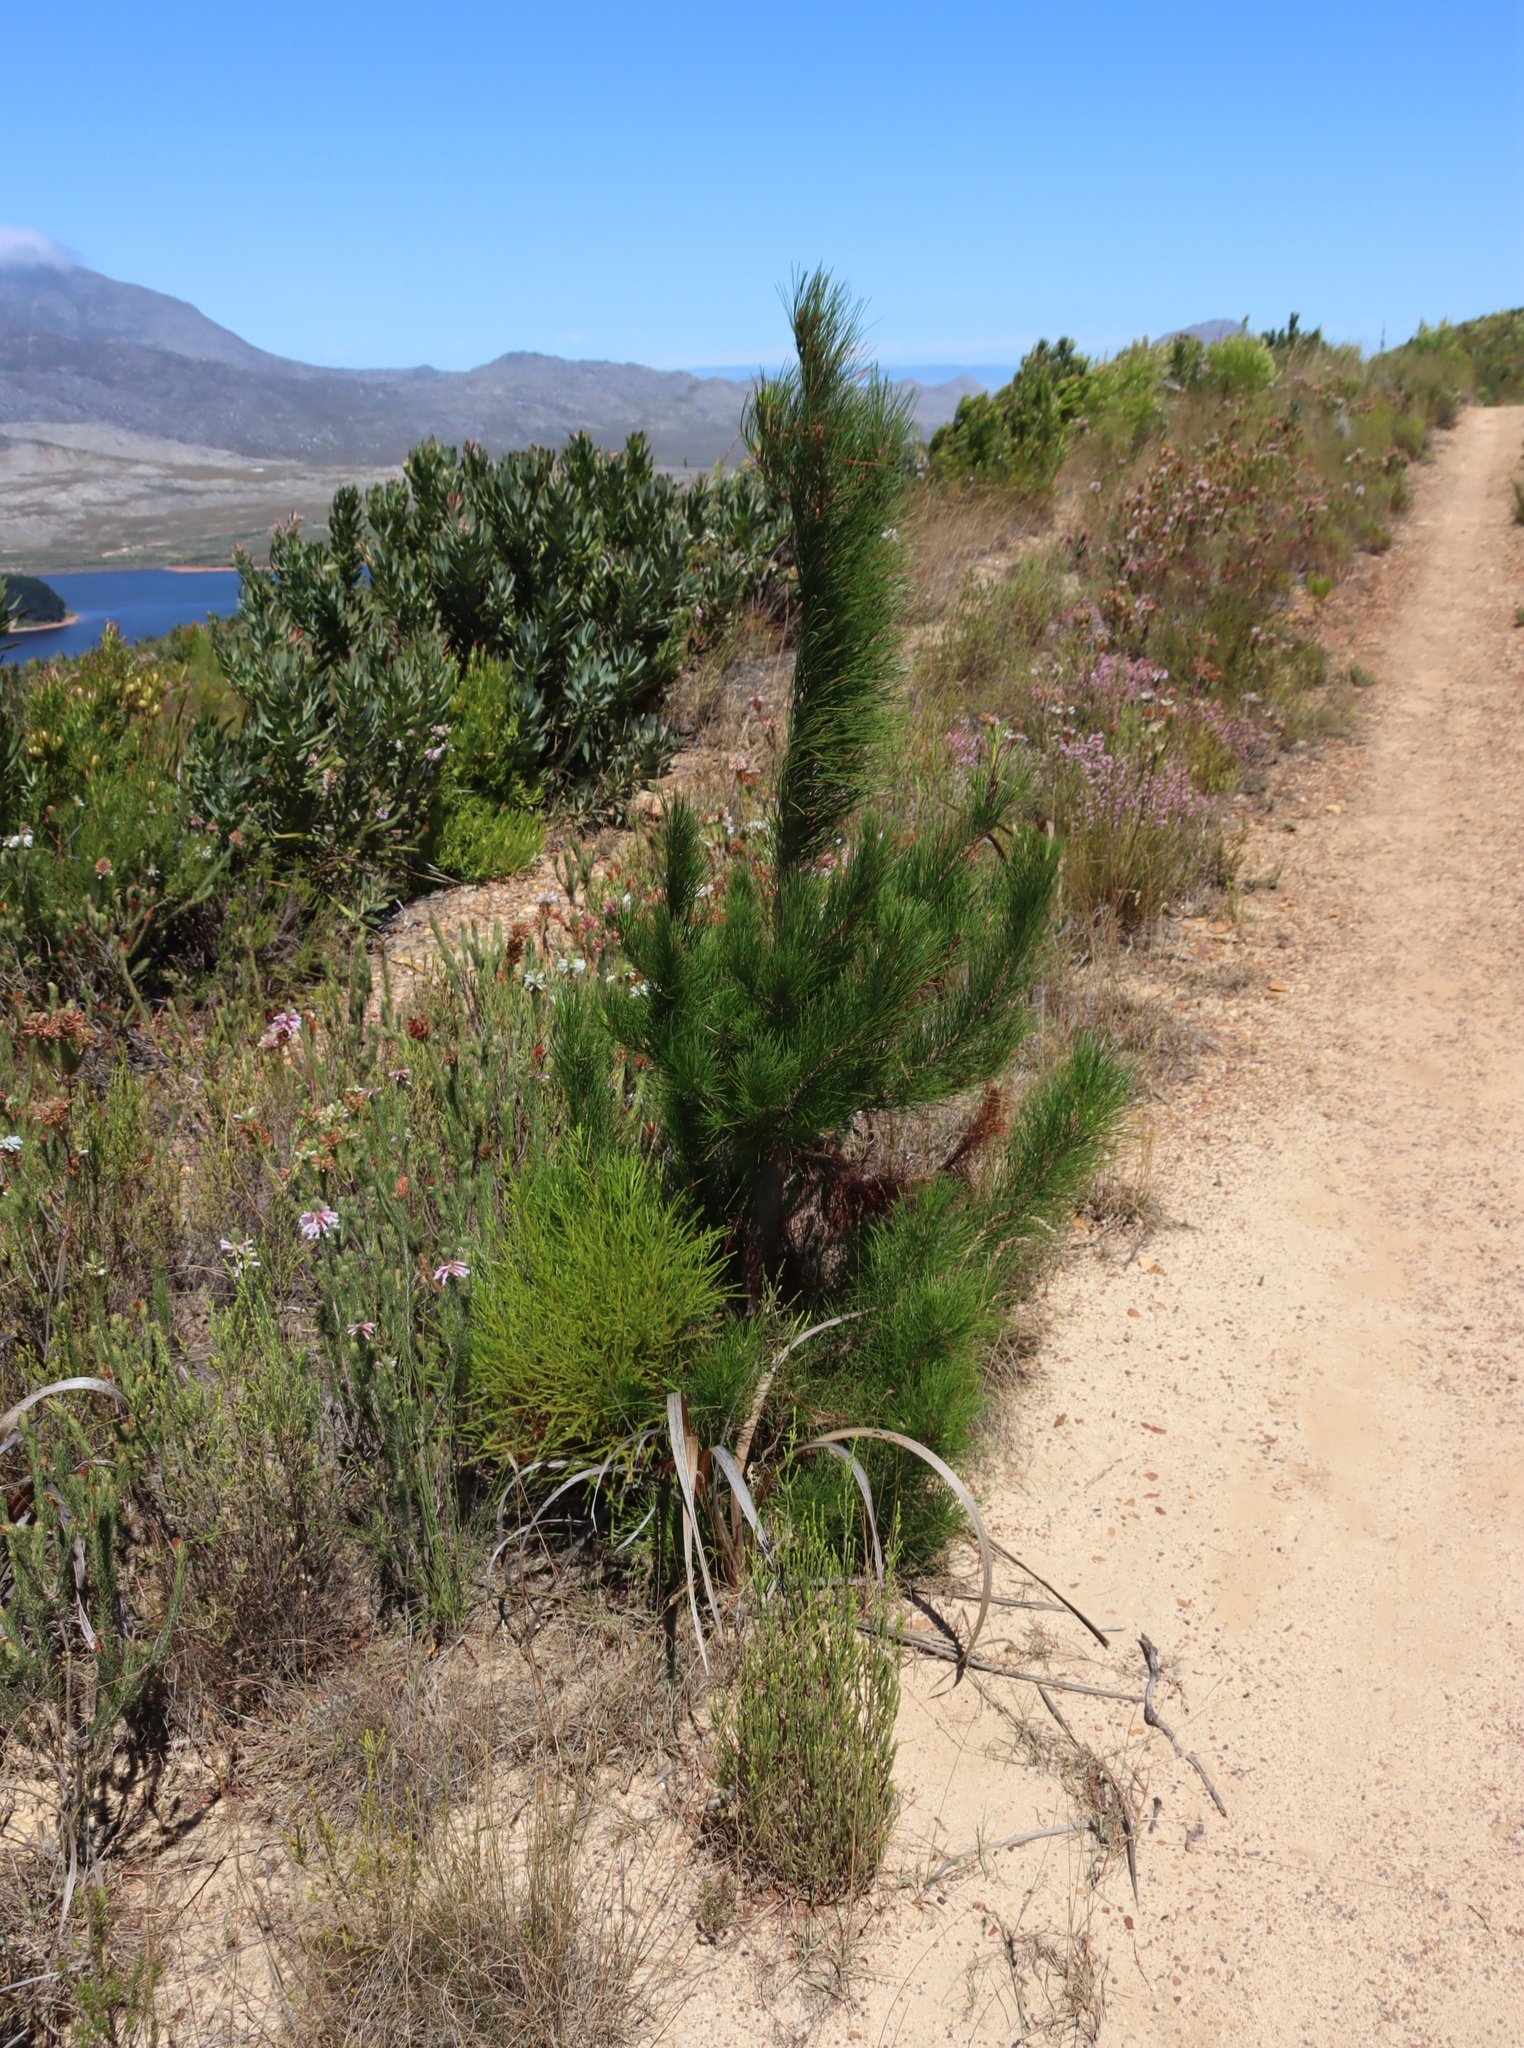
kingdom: Plantae
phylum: Tracheophyta
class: Pinopsida
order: Pinales
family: Pinaceae
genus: Pinus
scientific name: Pinus radiata
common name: Monterey pine
